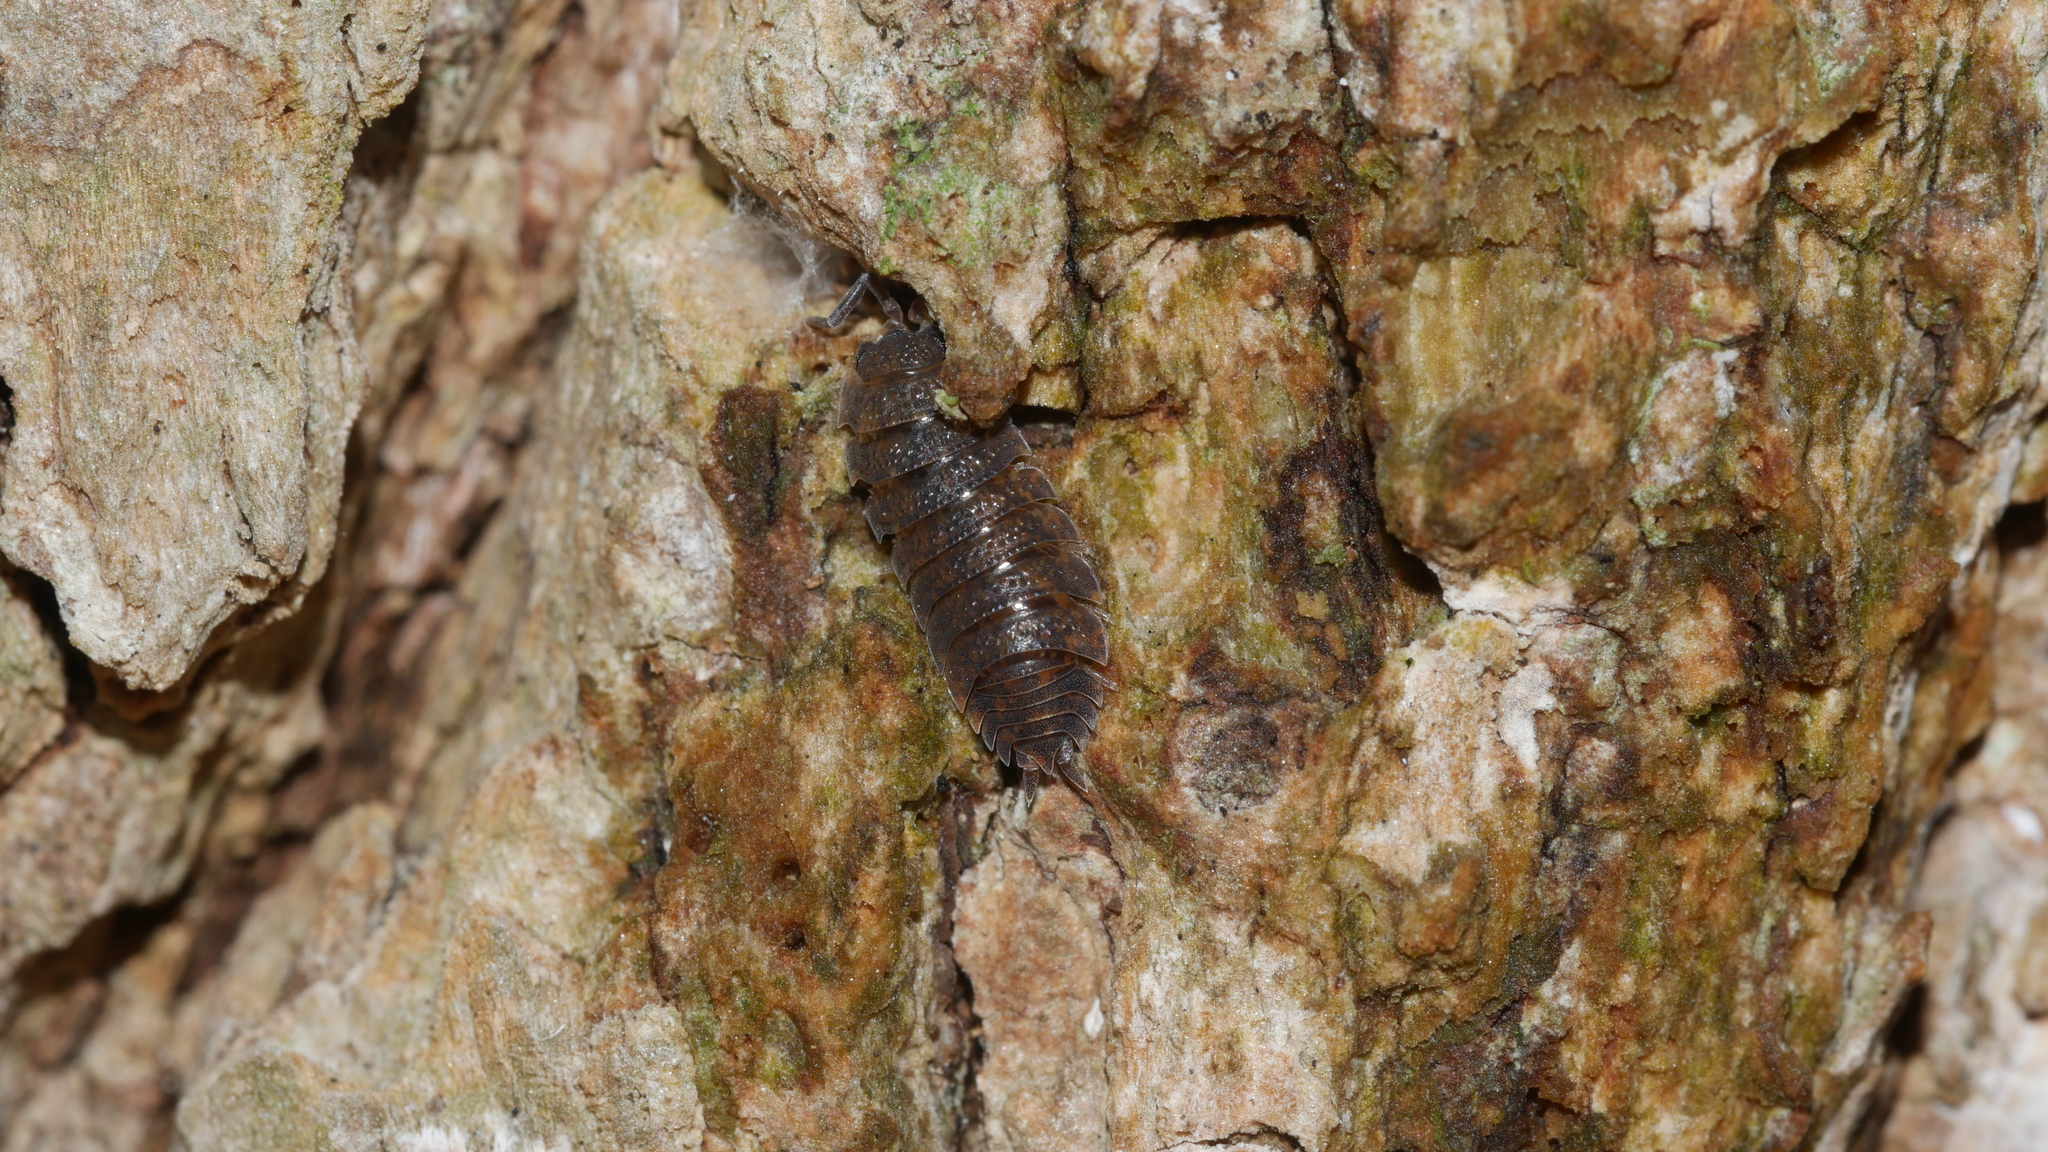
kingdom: Animalia
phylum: Arthropoda
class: Malacostraca
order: Isopoda
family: Porcellionidae
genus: Porcellio
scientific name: Porcellio scaber
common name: Common rough woodlouse
